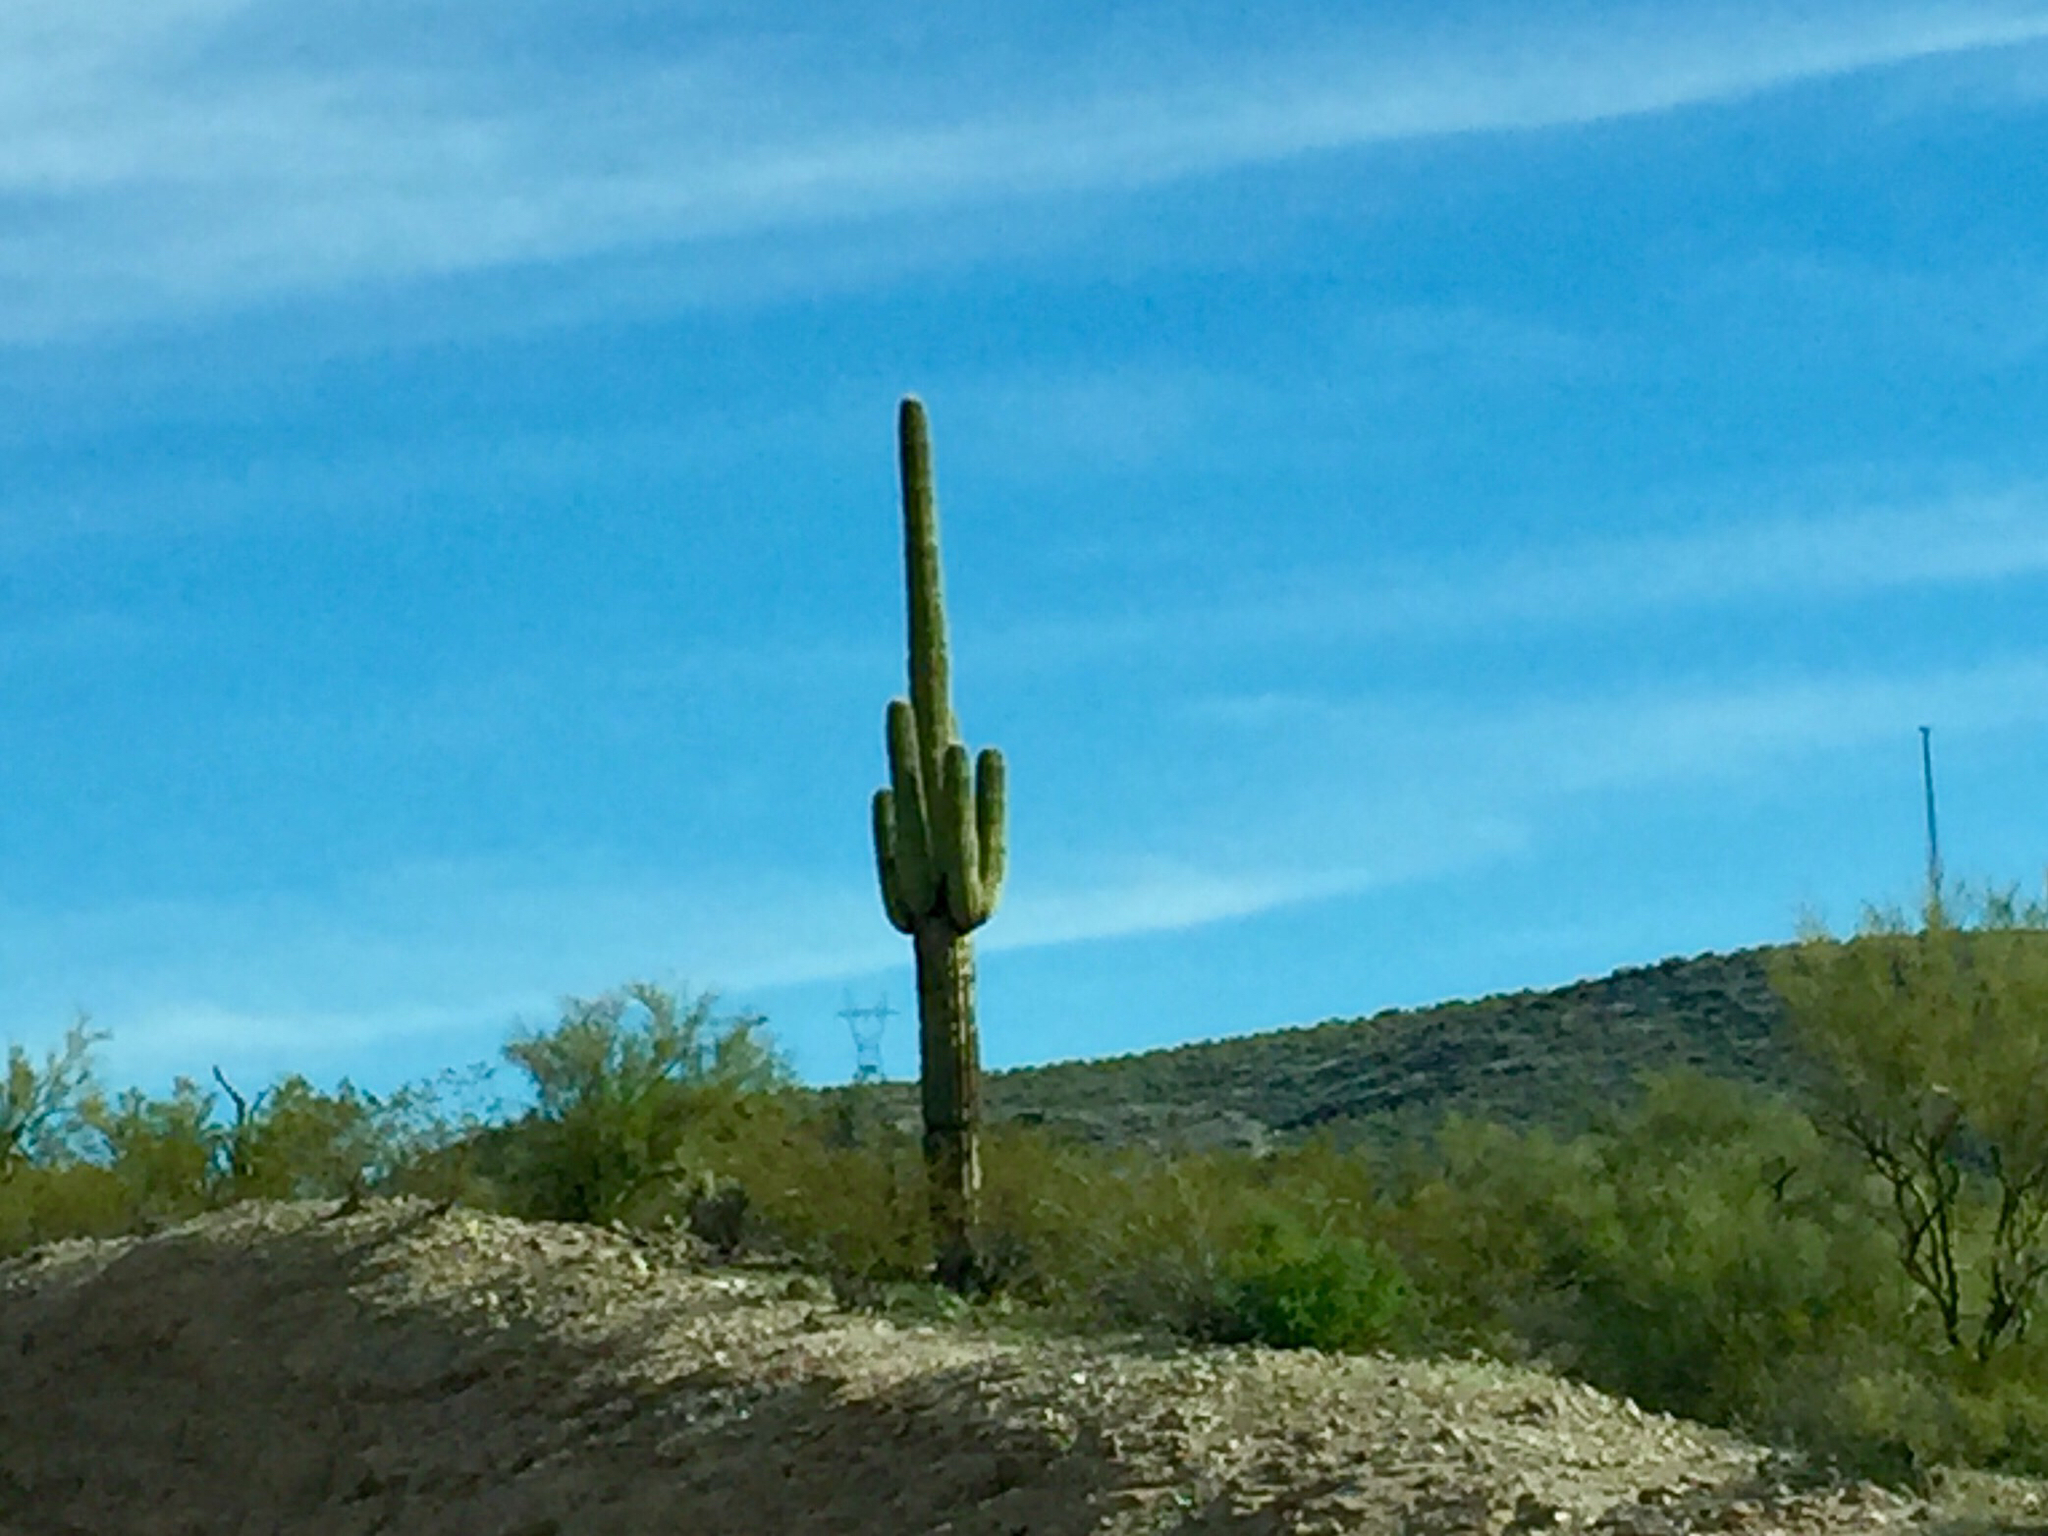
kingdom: Plantae
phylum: Tracheophyta
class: Magnoliopsida
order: Caryophyllales
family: Cactaceae
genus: Carnegiea
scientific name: Carnegiea gigantea
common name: Saguaro
